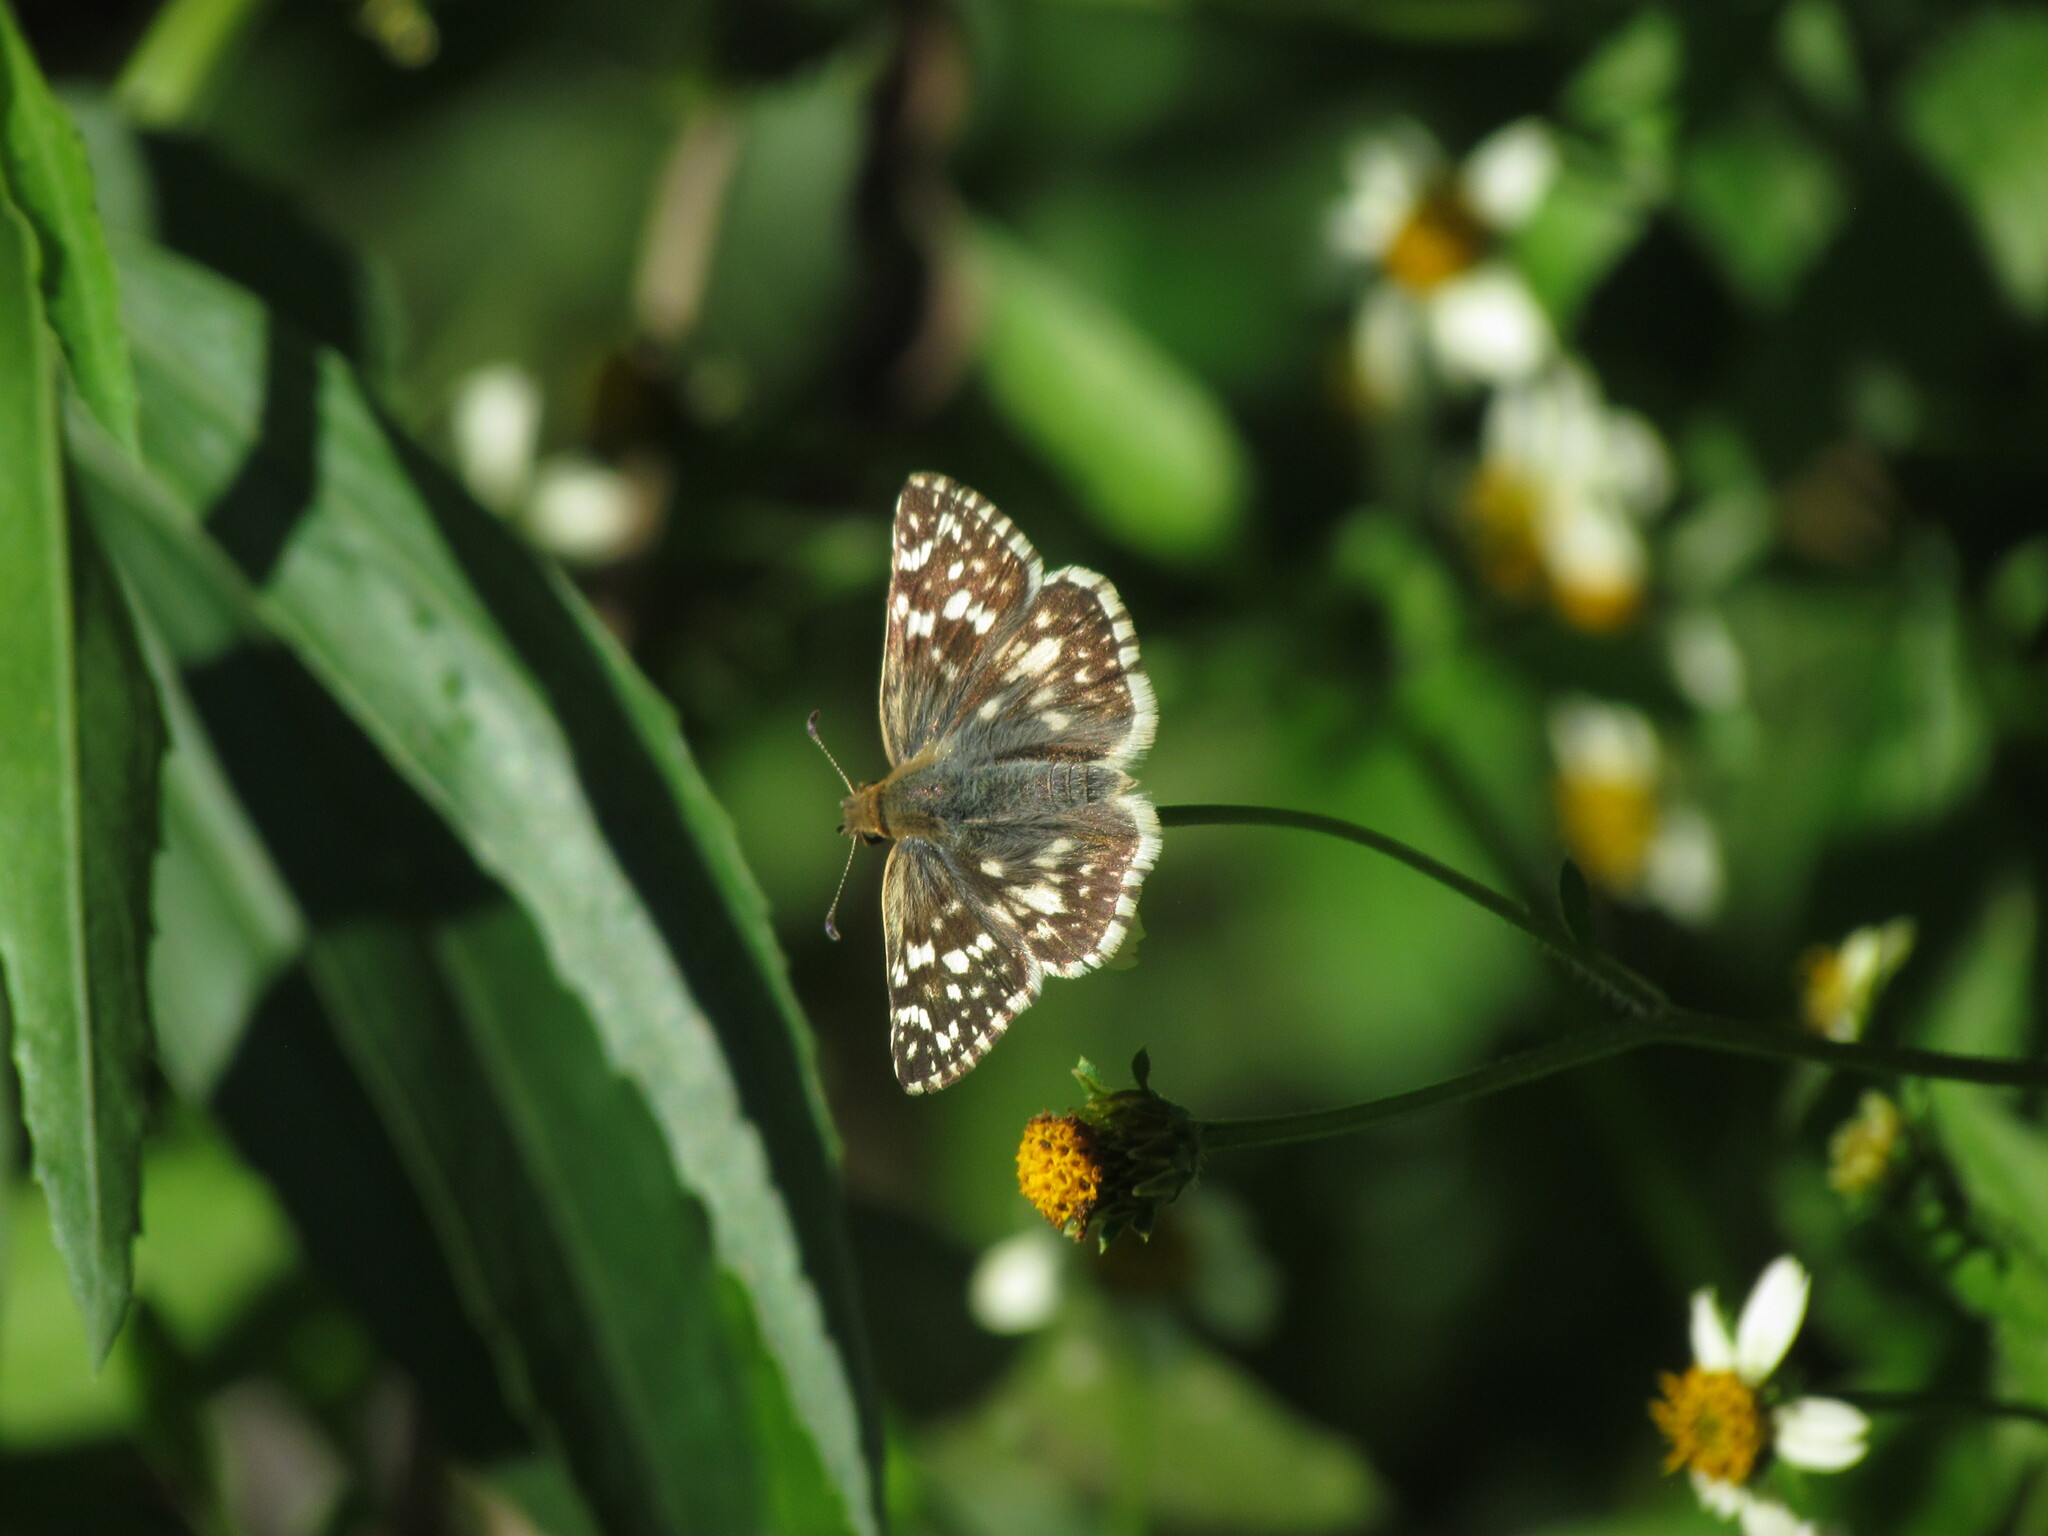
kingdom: Animalia
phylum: Arthropoda
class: Insecta
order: Lepidoptera
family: Hesperiidae
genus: Heliopetes
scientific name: Heliopetes americanus
